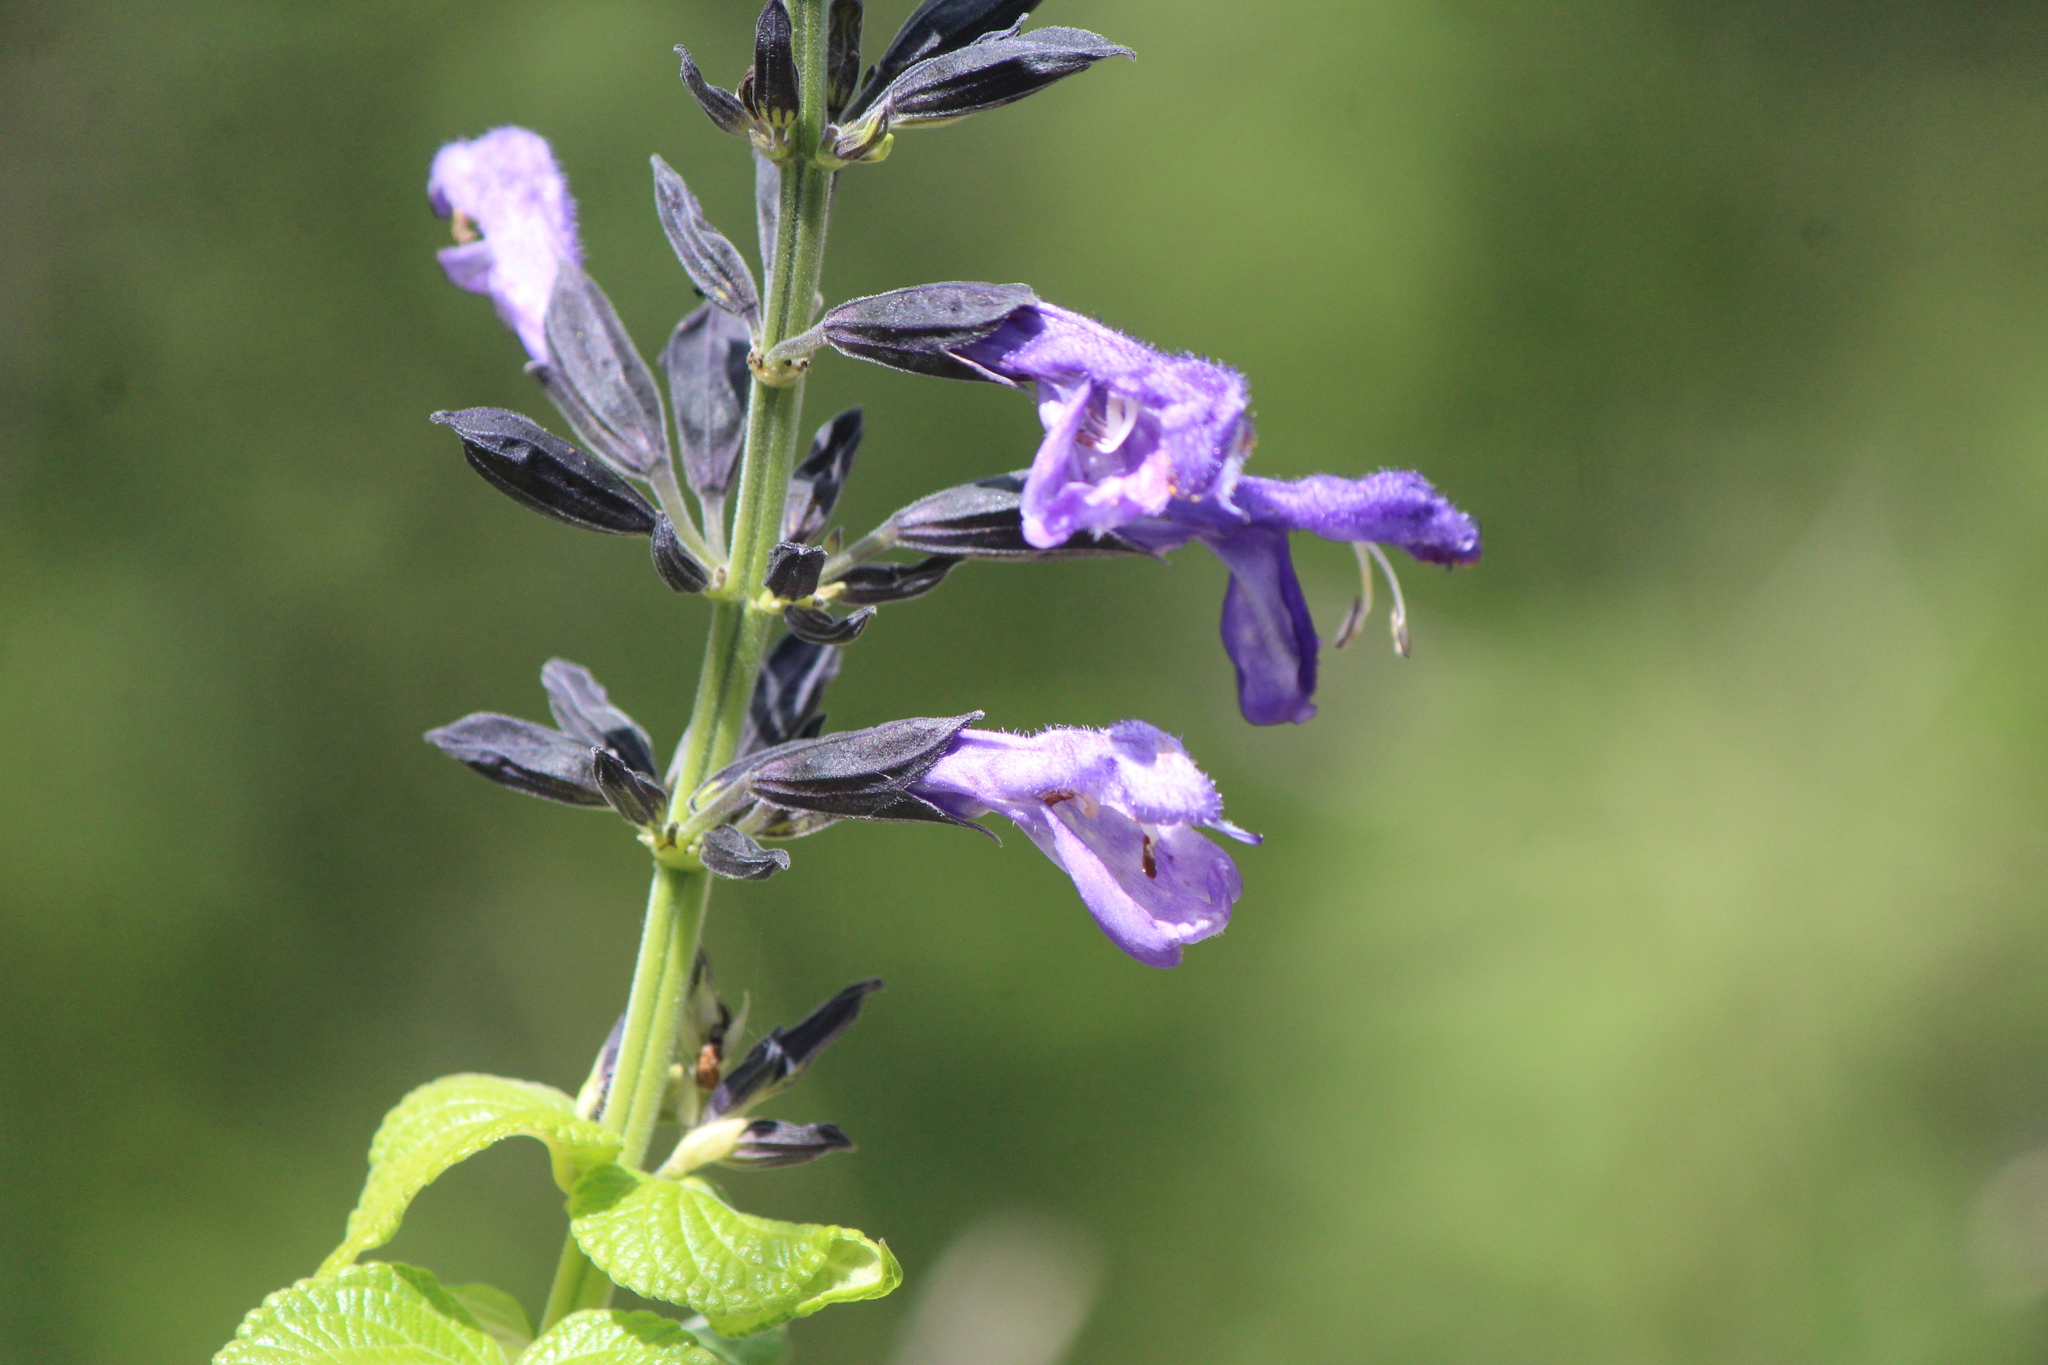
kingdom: Plantae
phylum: Tracheophyta
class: Magnoliopsida
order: Lamiales
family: Lamiaceae
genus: Salvia
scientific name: Salvia mexicana
